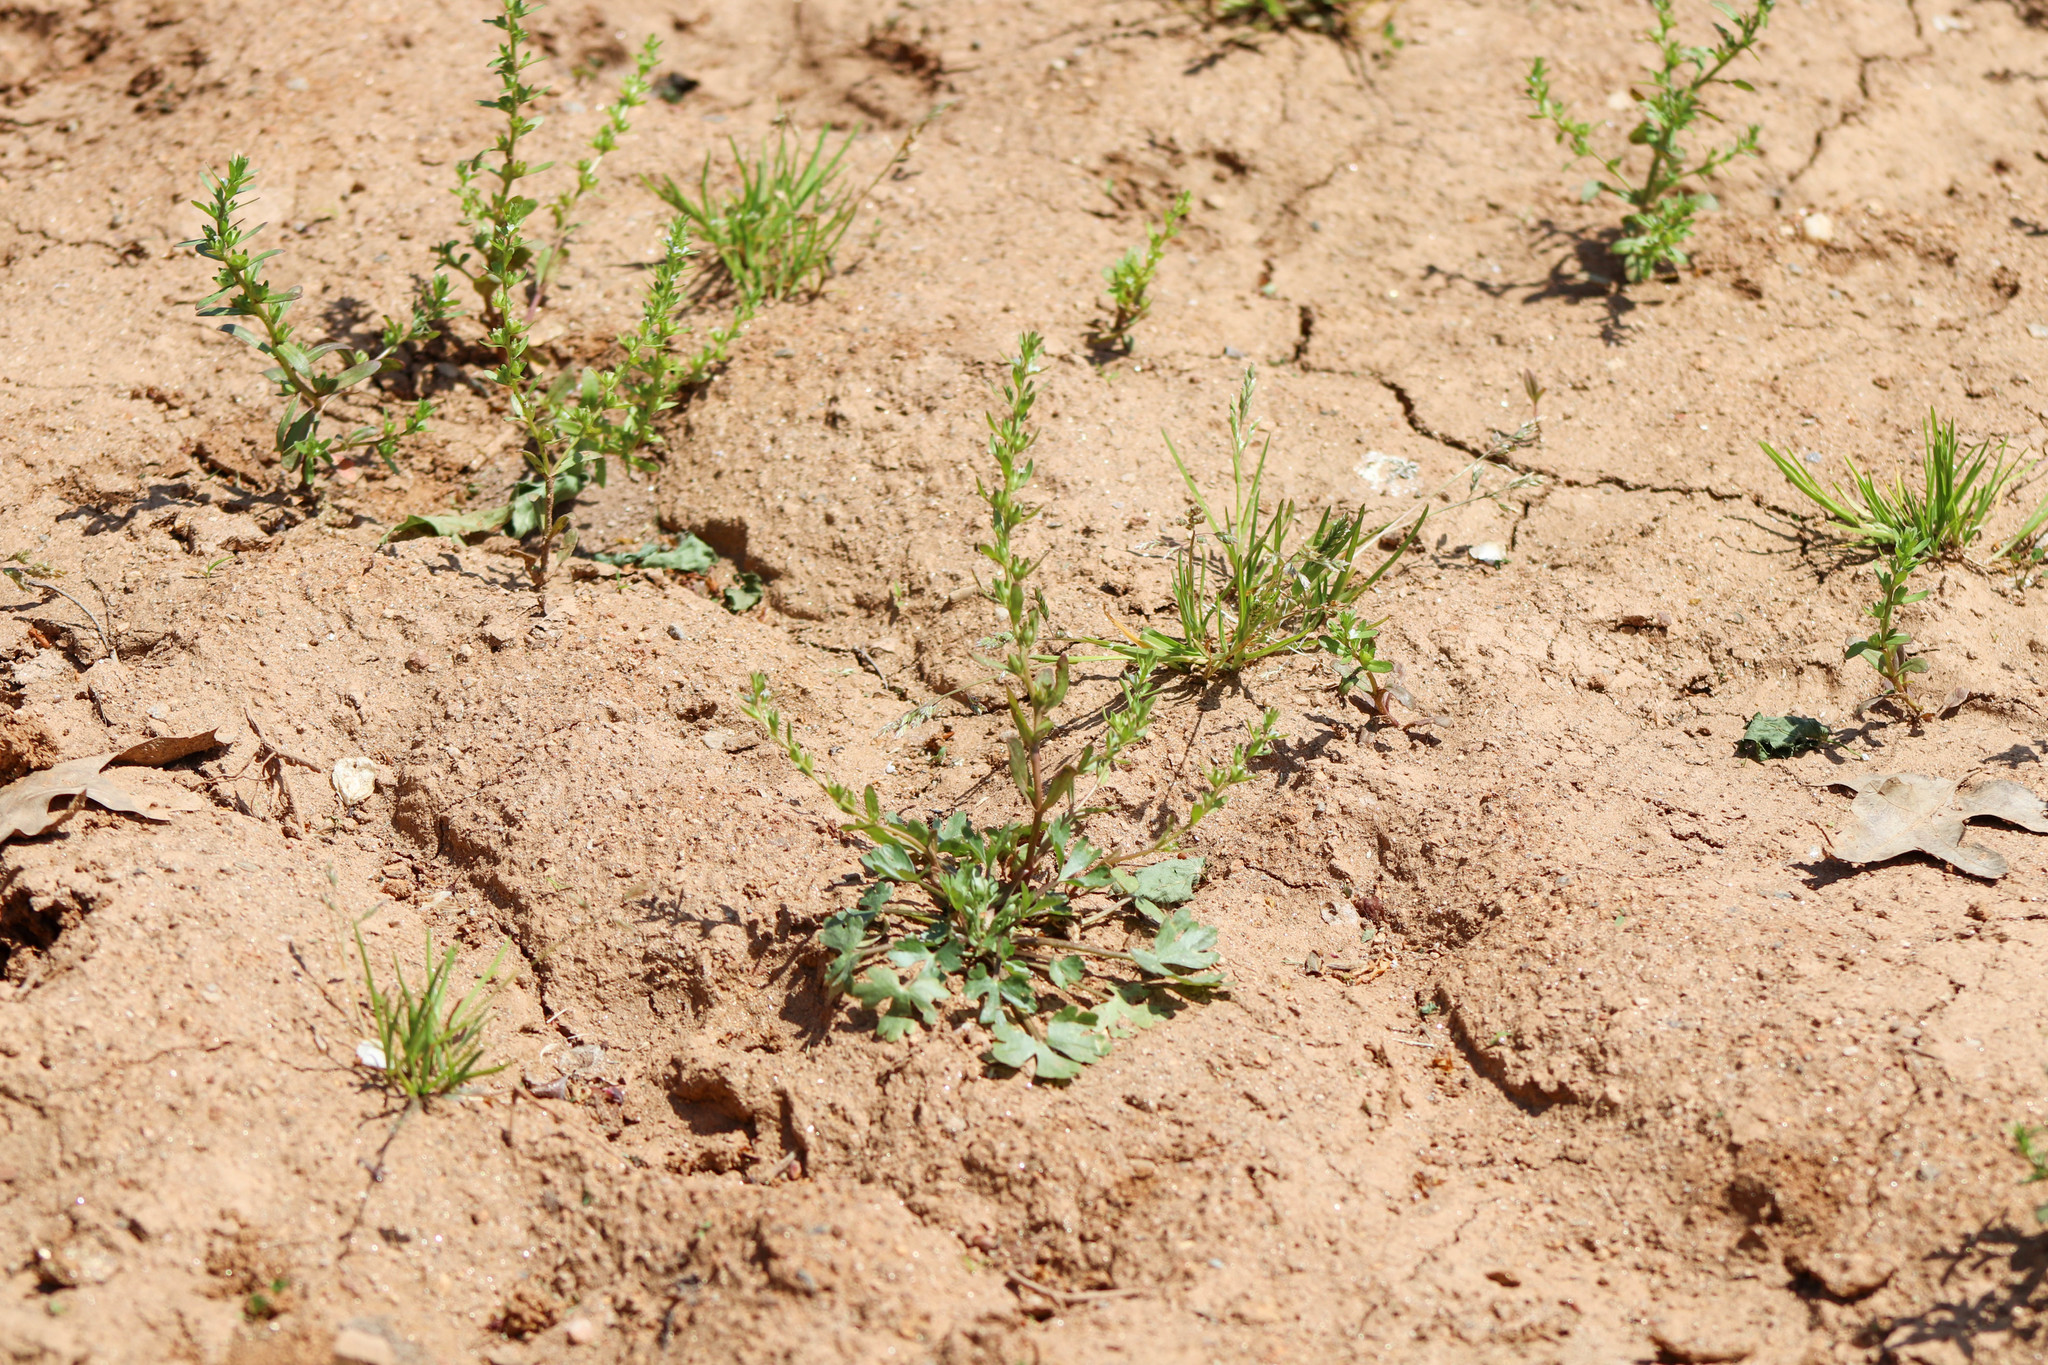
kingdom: Plantae
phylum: Tracheophyta
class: Magnoliopsida
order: Lamiales
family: Plantaginaceae
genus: Veronica
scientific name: Veronica peregrina
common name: Neckweed
